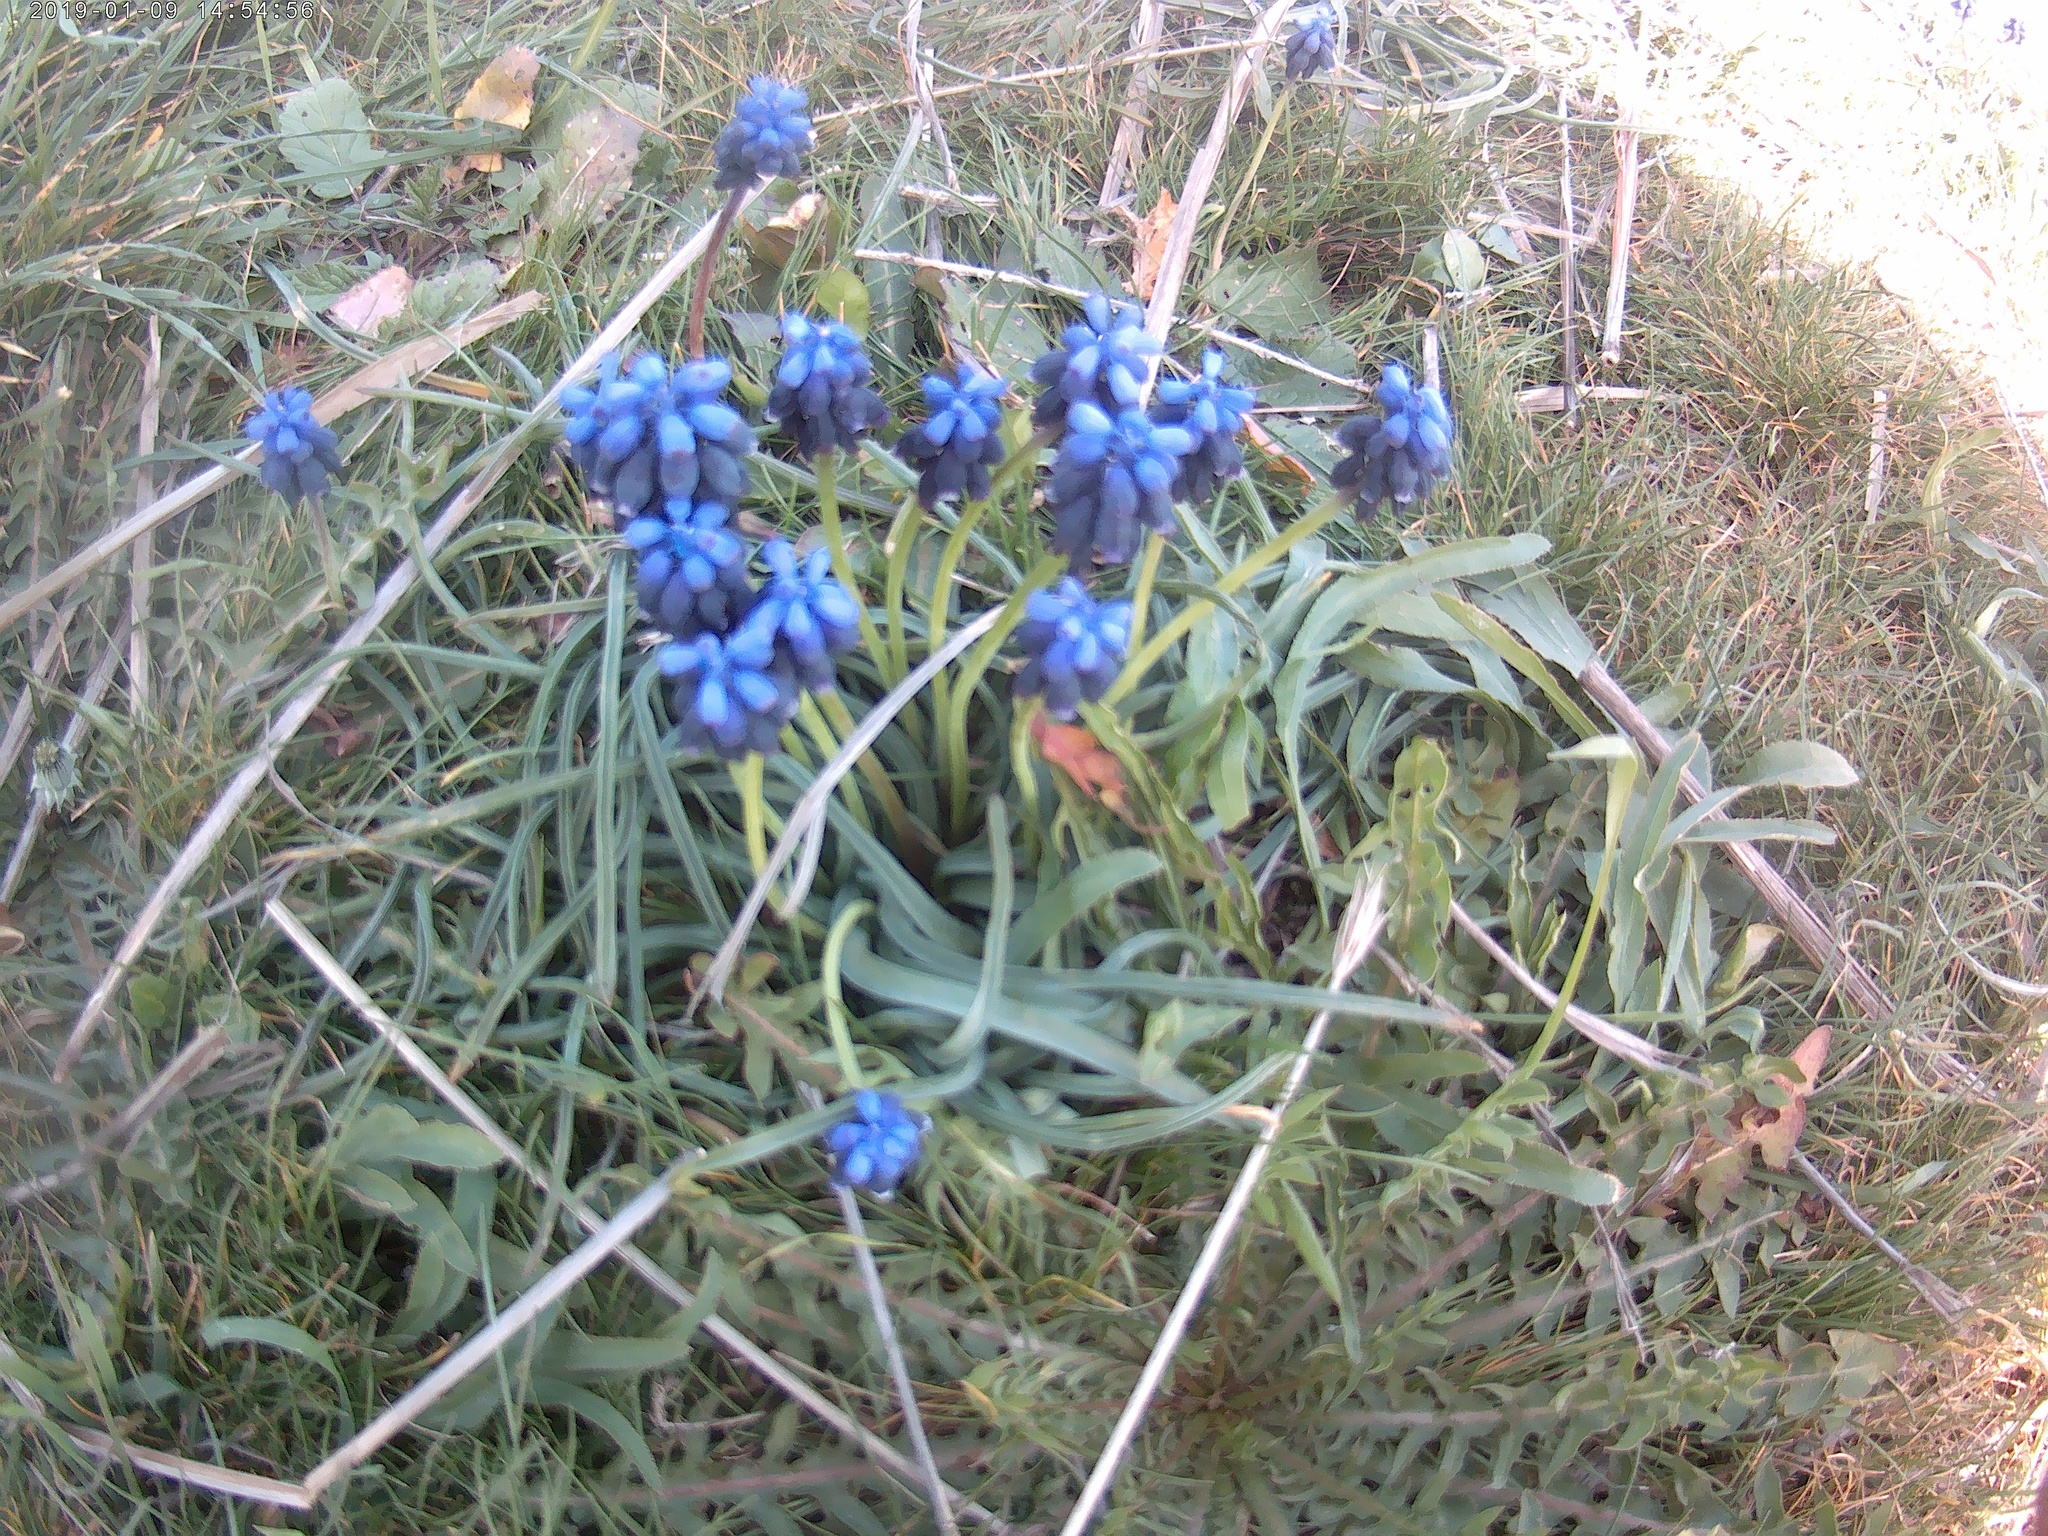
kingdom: Plantae
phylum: Tracheophyta
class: Liliopsida
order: Asparagales
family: Asparagaceae
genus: Muscari
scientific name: Muscari neglectum
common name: Grape-hyacinth
